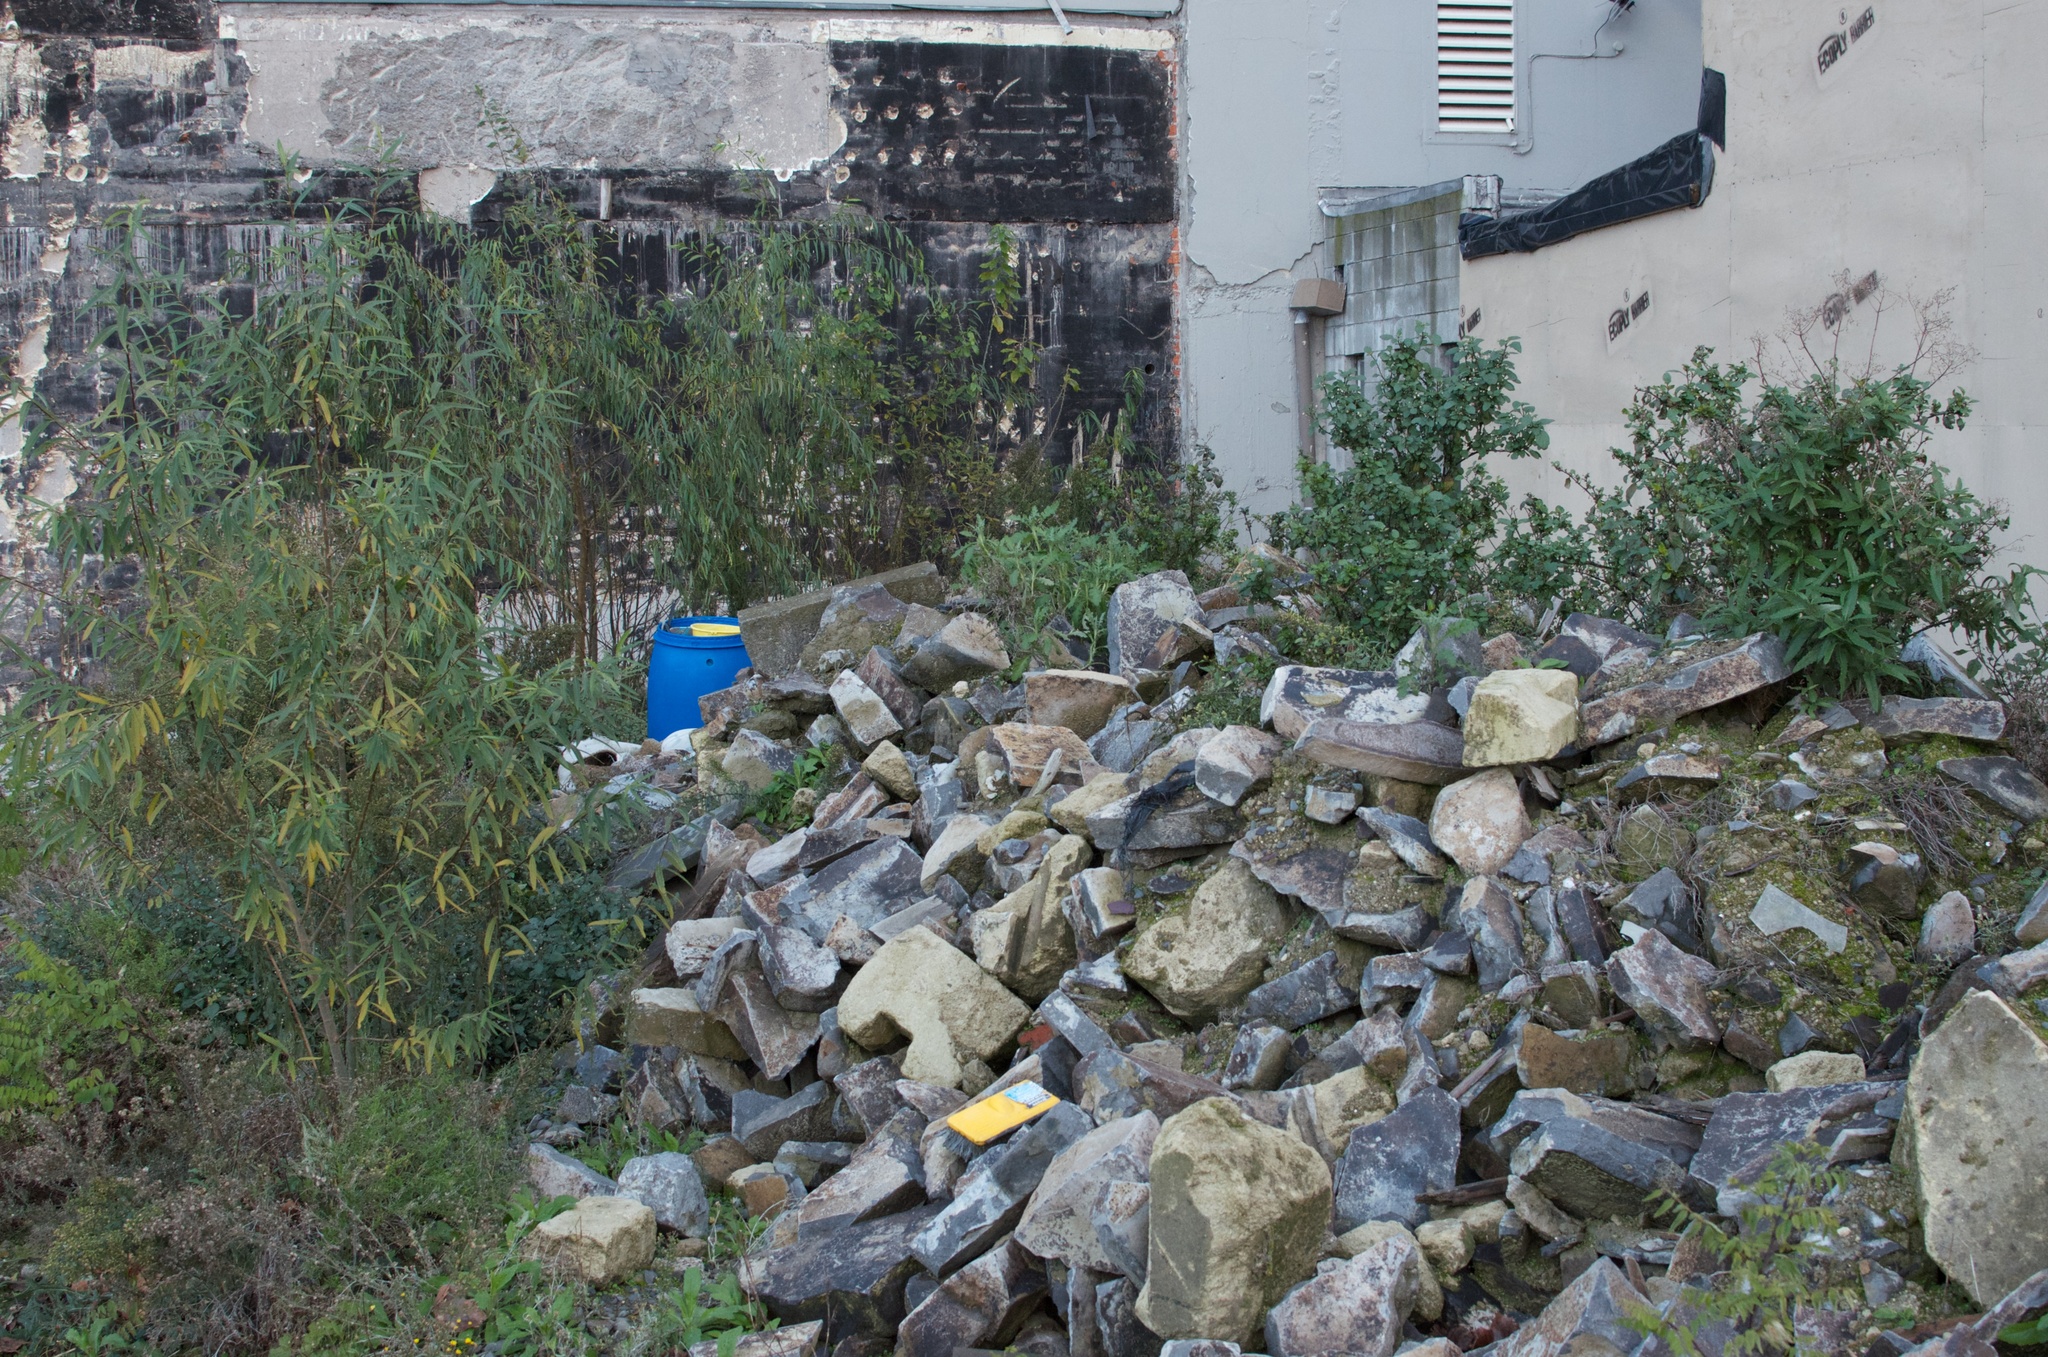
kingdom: Plantae
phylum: Tracheophyta
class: Magnoliopsida
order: Asterales
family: Asteraceae
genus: Senecio
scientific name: Senecio minimus
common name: Toothed fireweed
